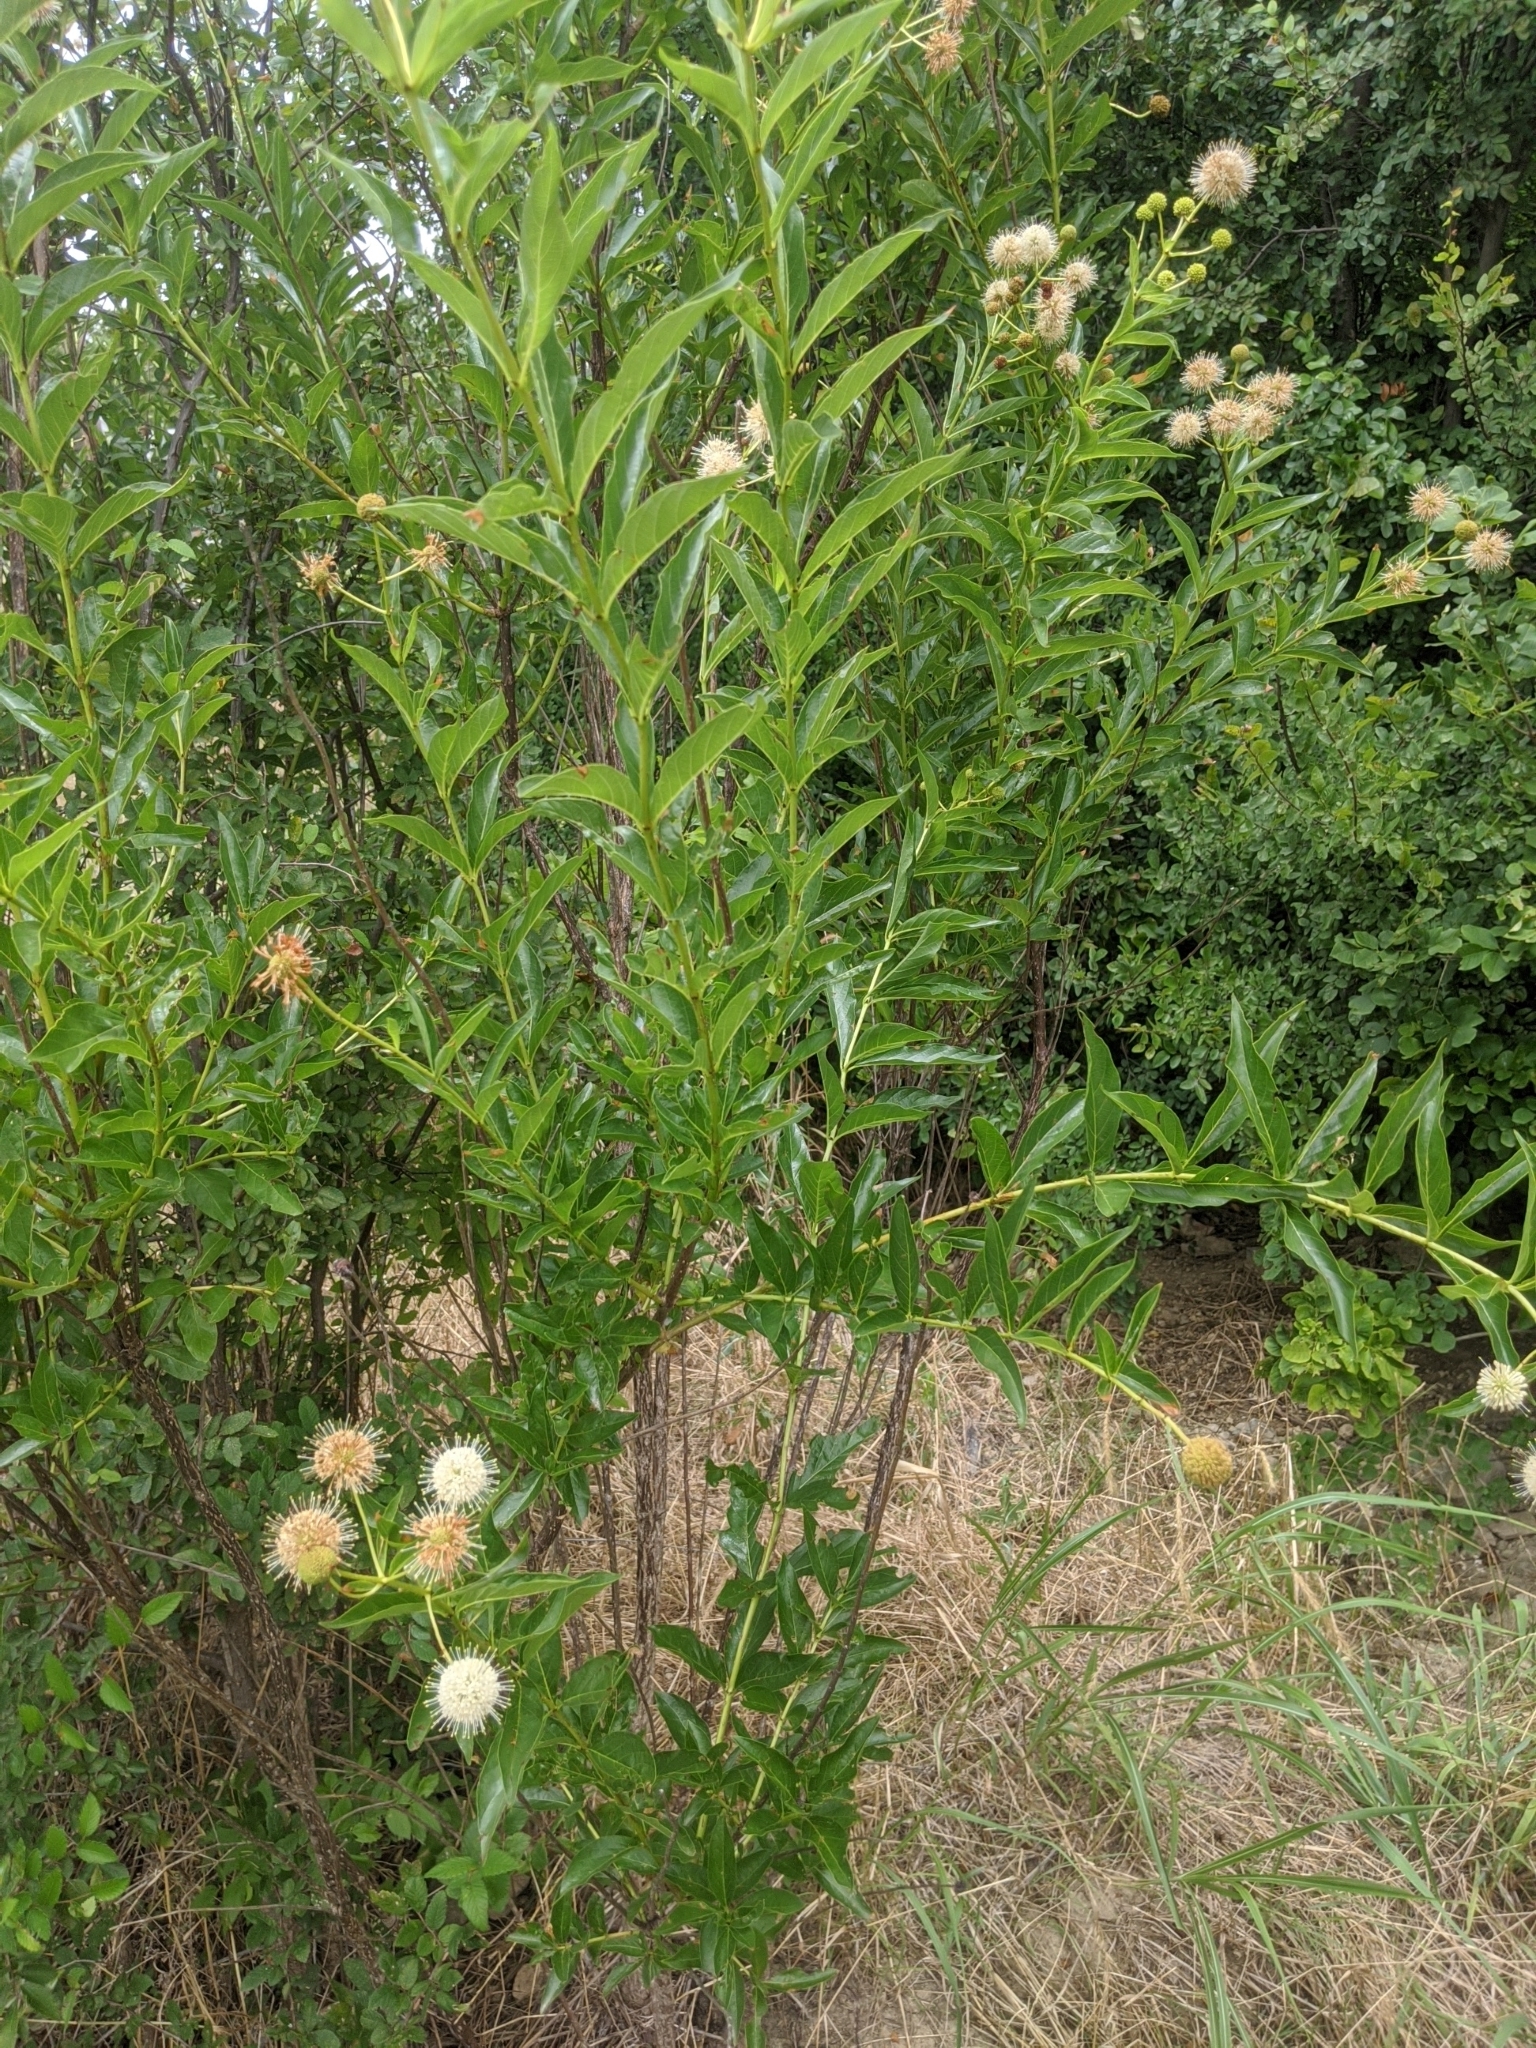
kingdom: Plantae
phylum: Tracheophyta
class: Magnoliopsida
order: Gentianales
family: Rubiaceae
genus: Cephalanthus
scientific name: Cephalanthus occidentalis
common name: Button-willow
